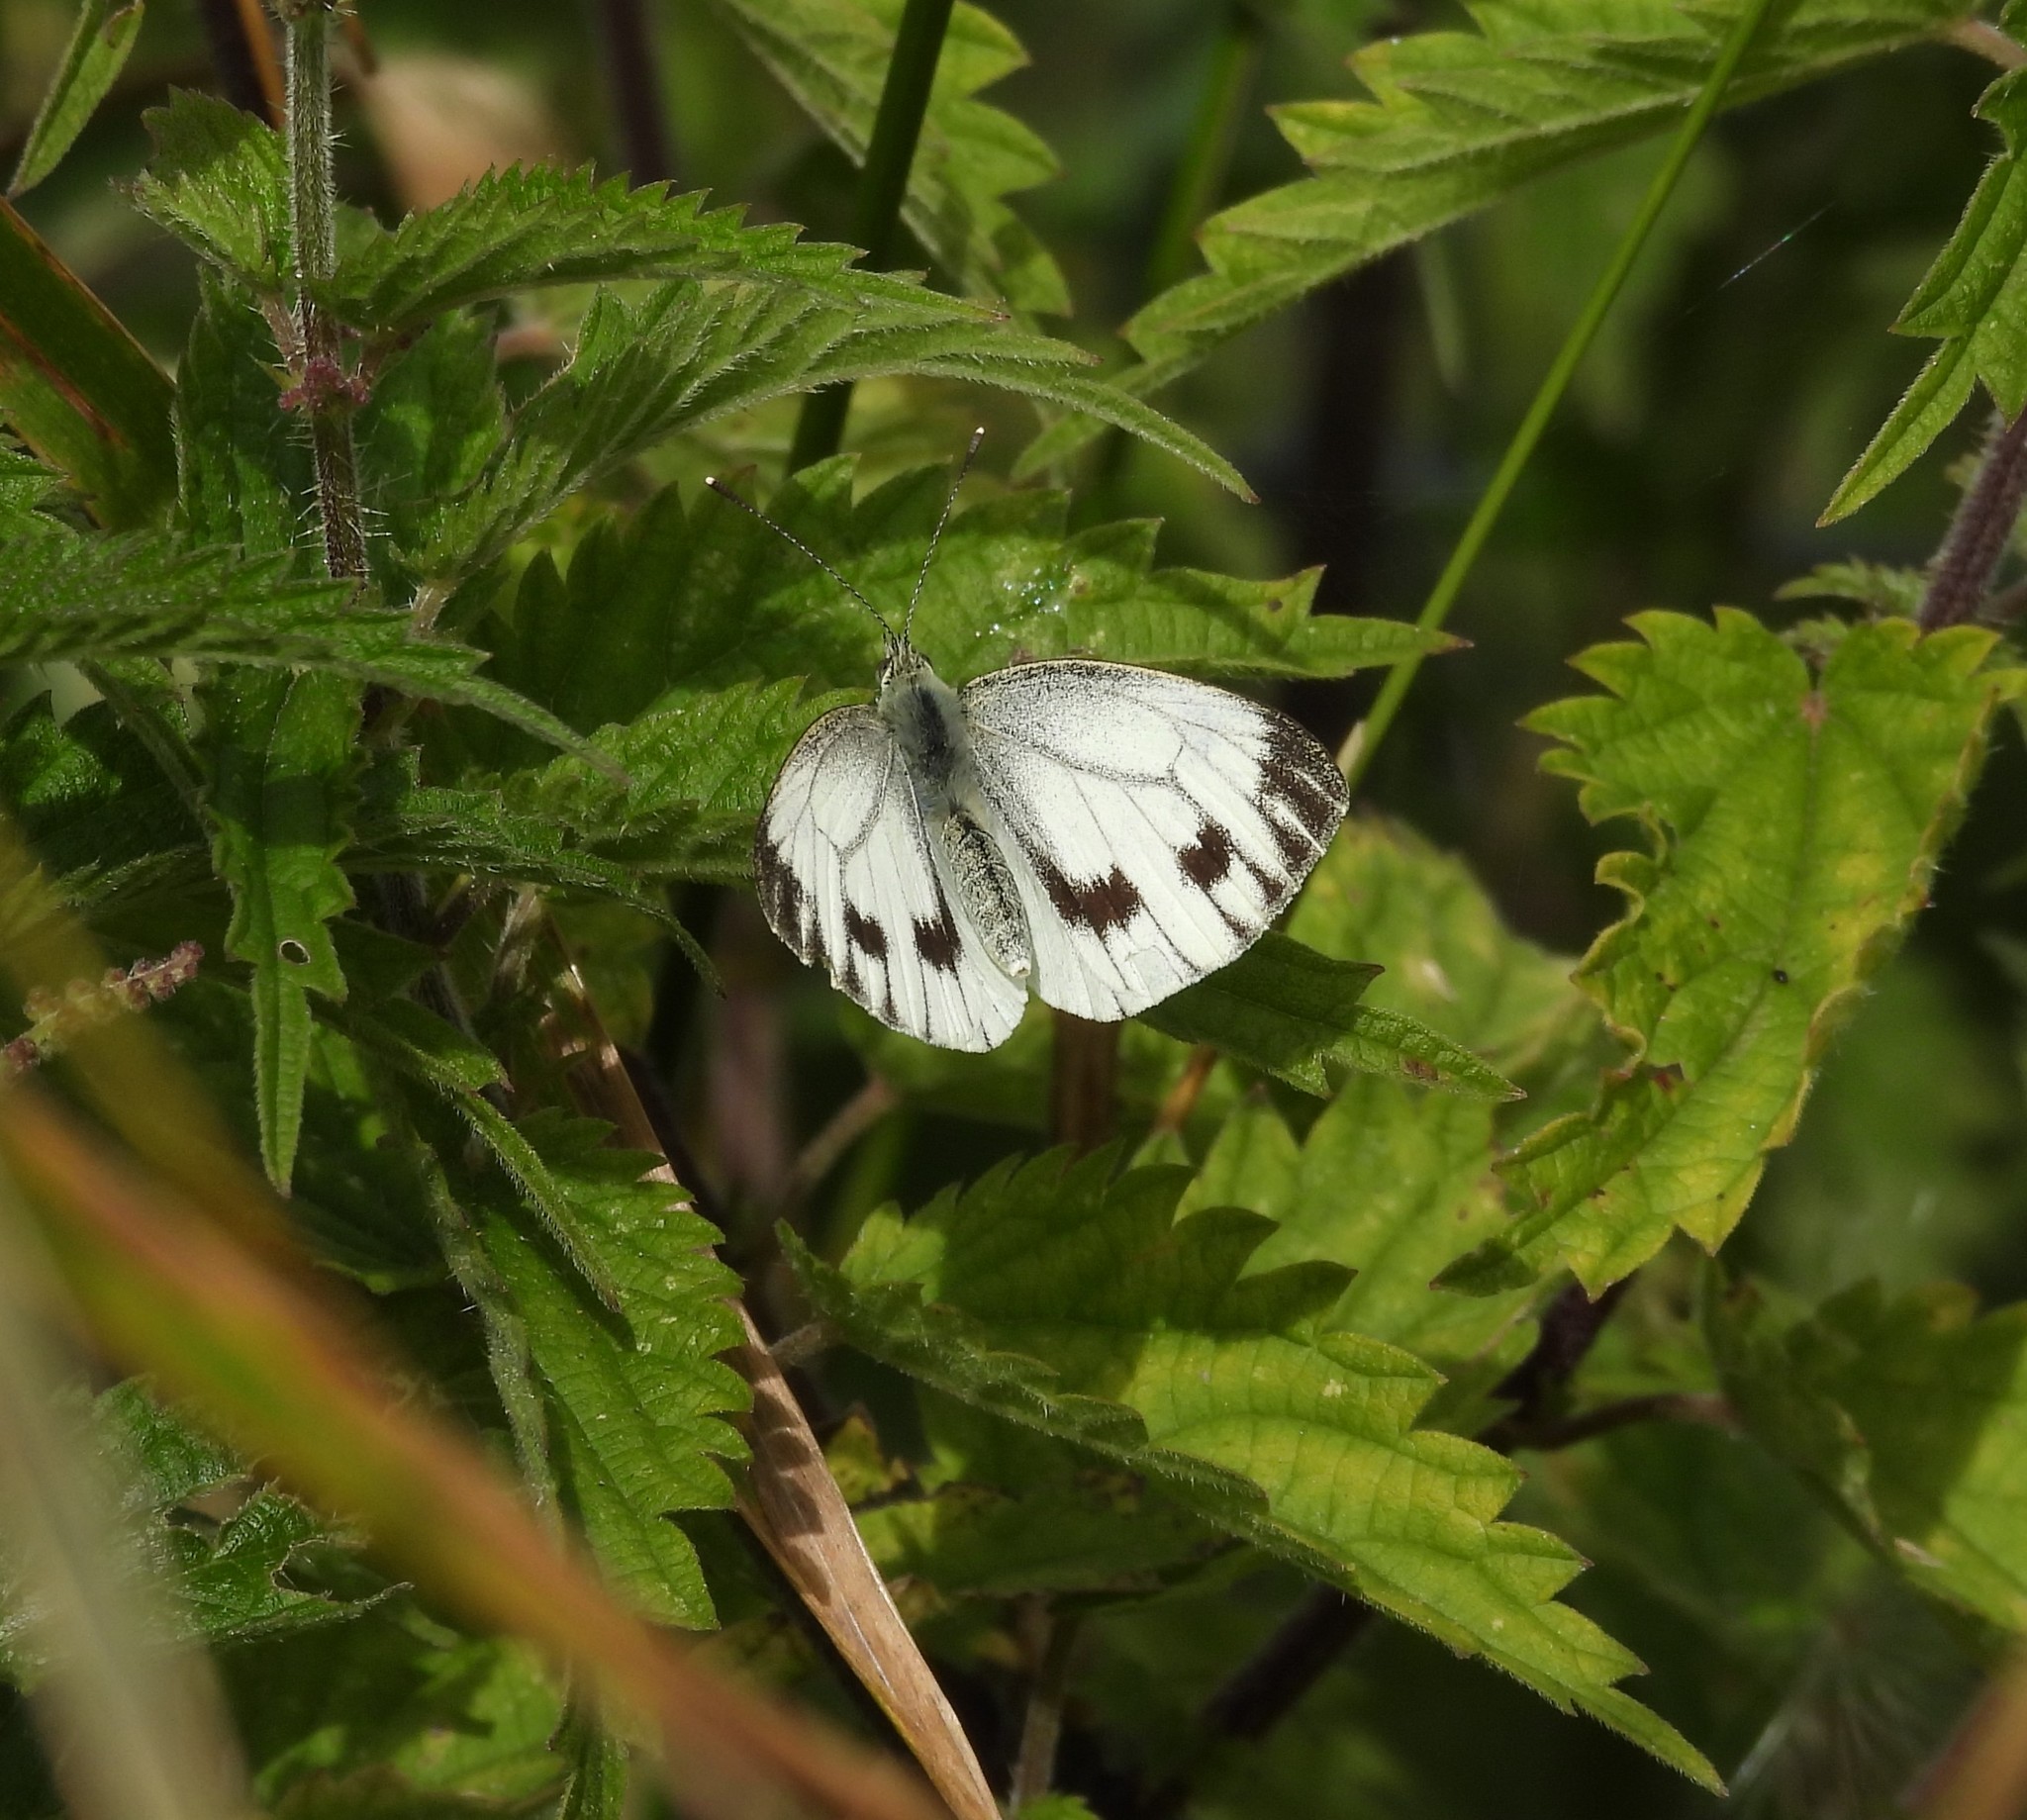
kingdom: Animalia
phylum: Arthropoda
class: Insecta
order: Lepidoptera
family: Pieridae
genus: Pieris
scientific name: Pieris napi
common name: Green-veined white
